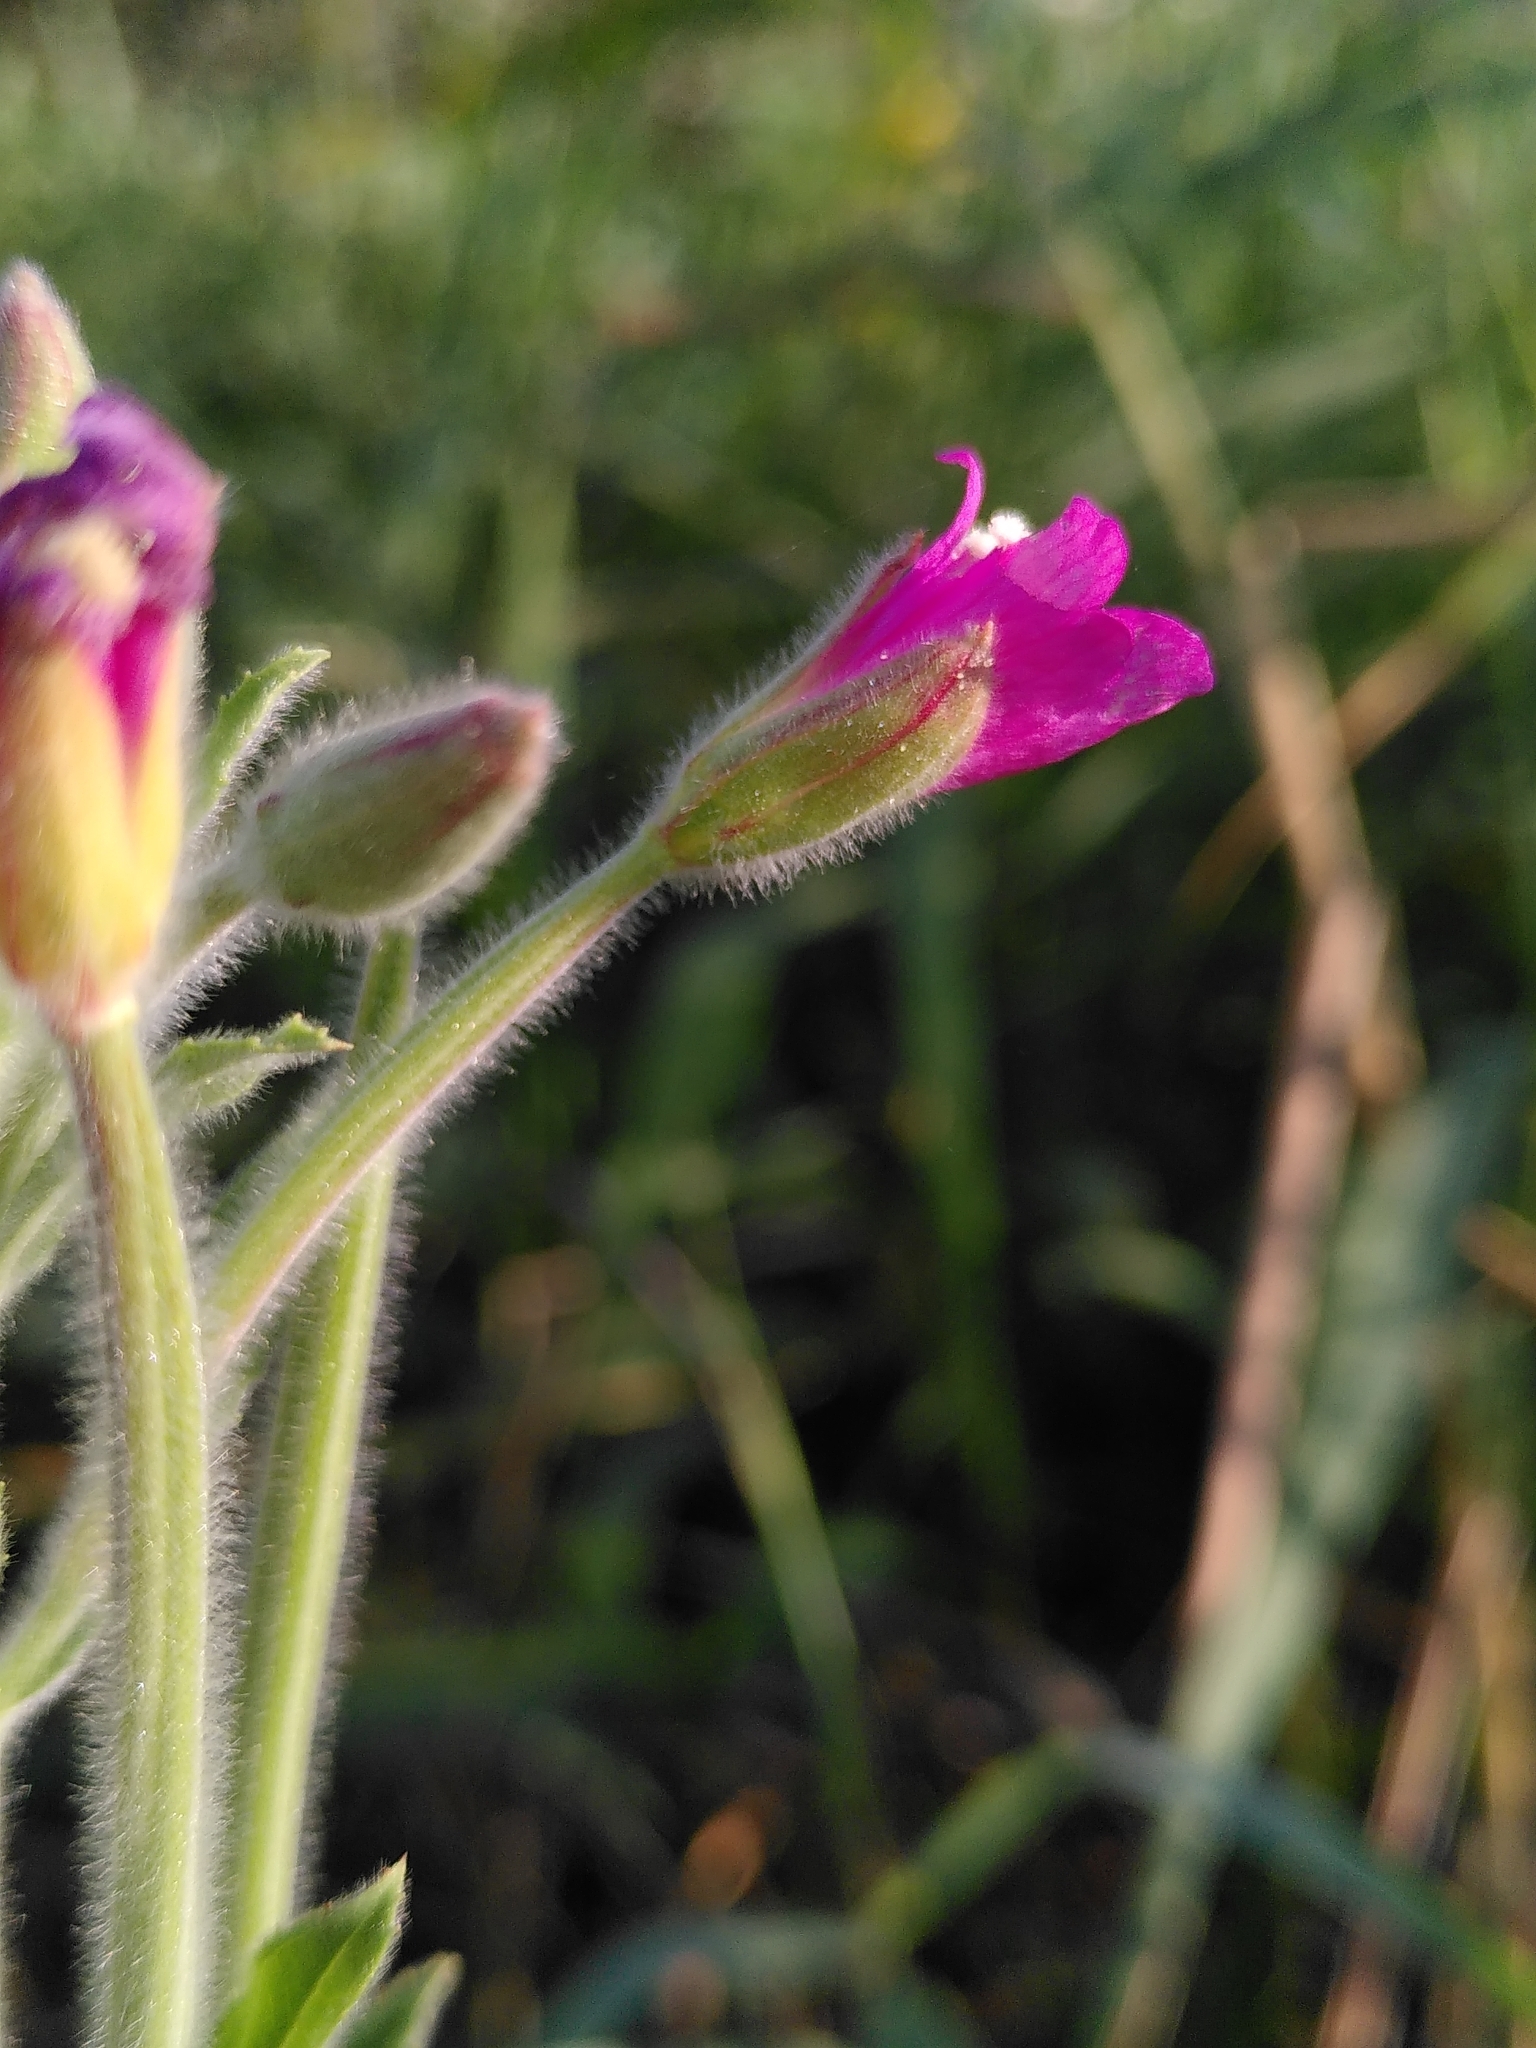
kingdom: Plantae
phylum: Tracheophyta
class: Magnoliopsida
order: Myrtales
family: Onagraceae
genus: Epilobium
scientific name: Epilobium hirsutum
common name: Great willowherb
